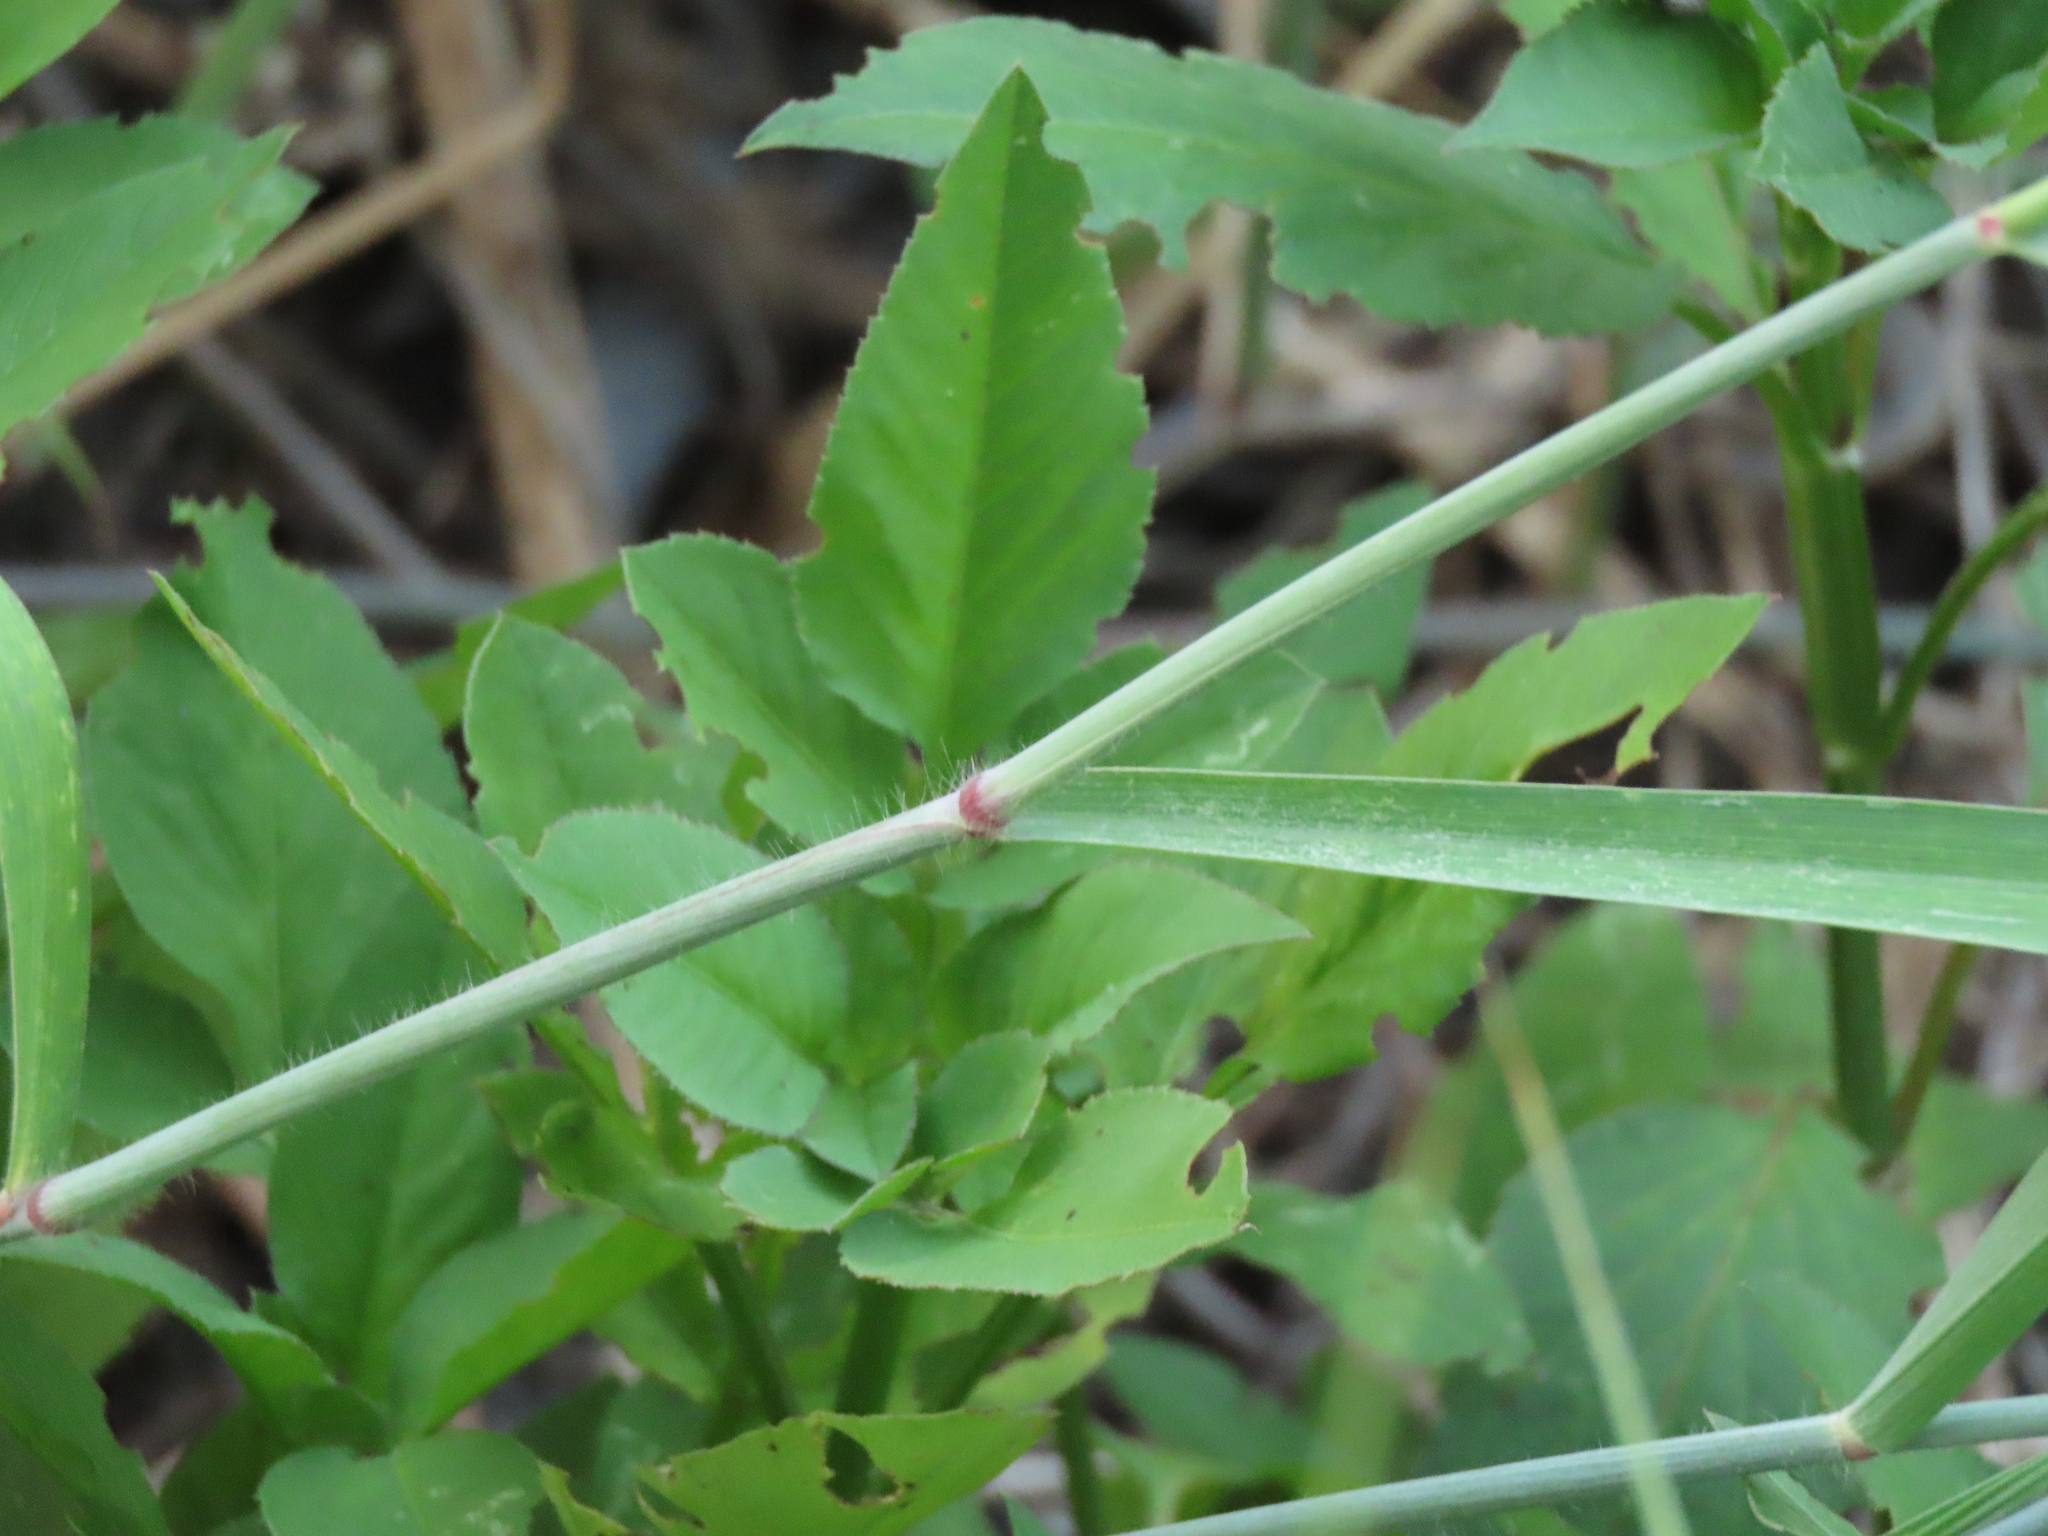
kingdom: Plantae
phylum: Tracheophyta
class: Liliopsida
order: Poales
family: Poaceae
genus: Melinis
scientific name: Melinis repens
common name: Rose natal grass
